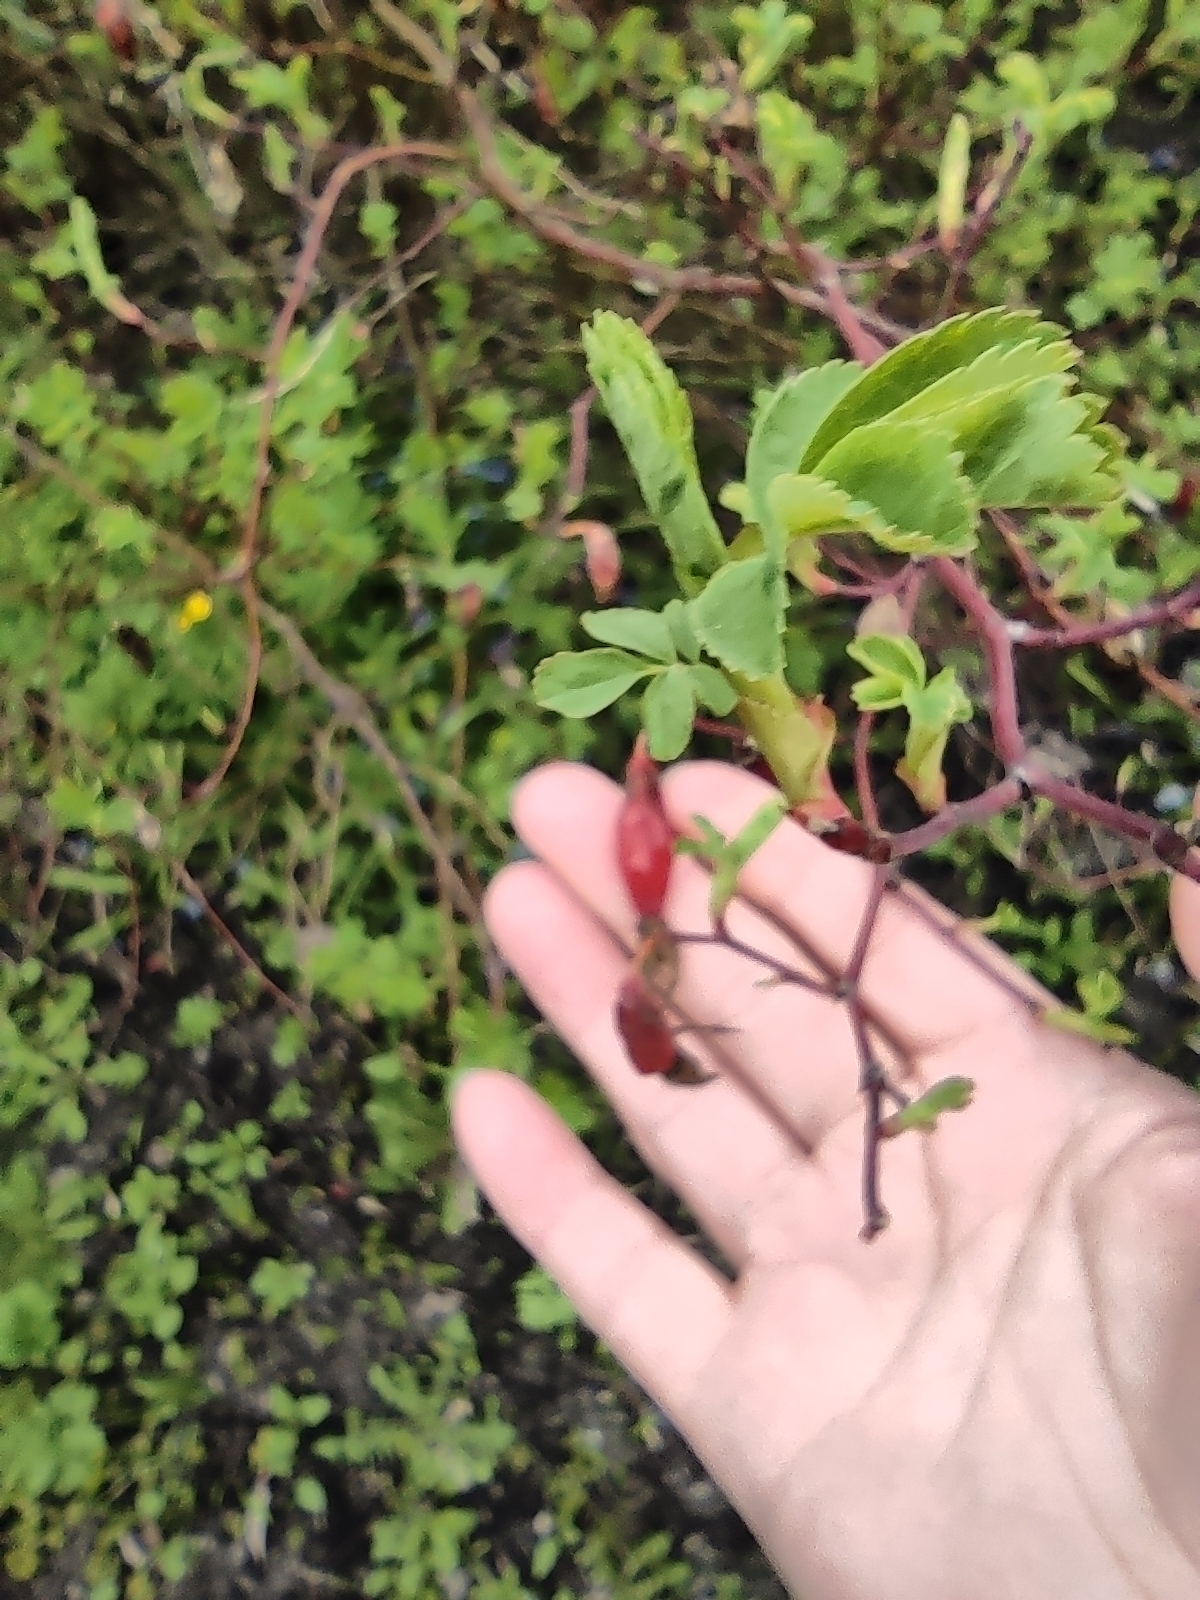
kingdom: Plantae
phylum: Tracheophyta
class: Magnoliopsida
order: Rosales
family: Rosaceae
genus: Rosa
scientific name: Rosa
